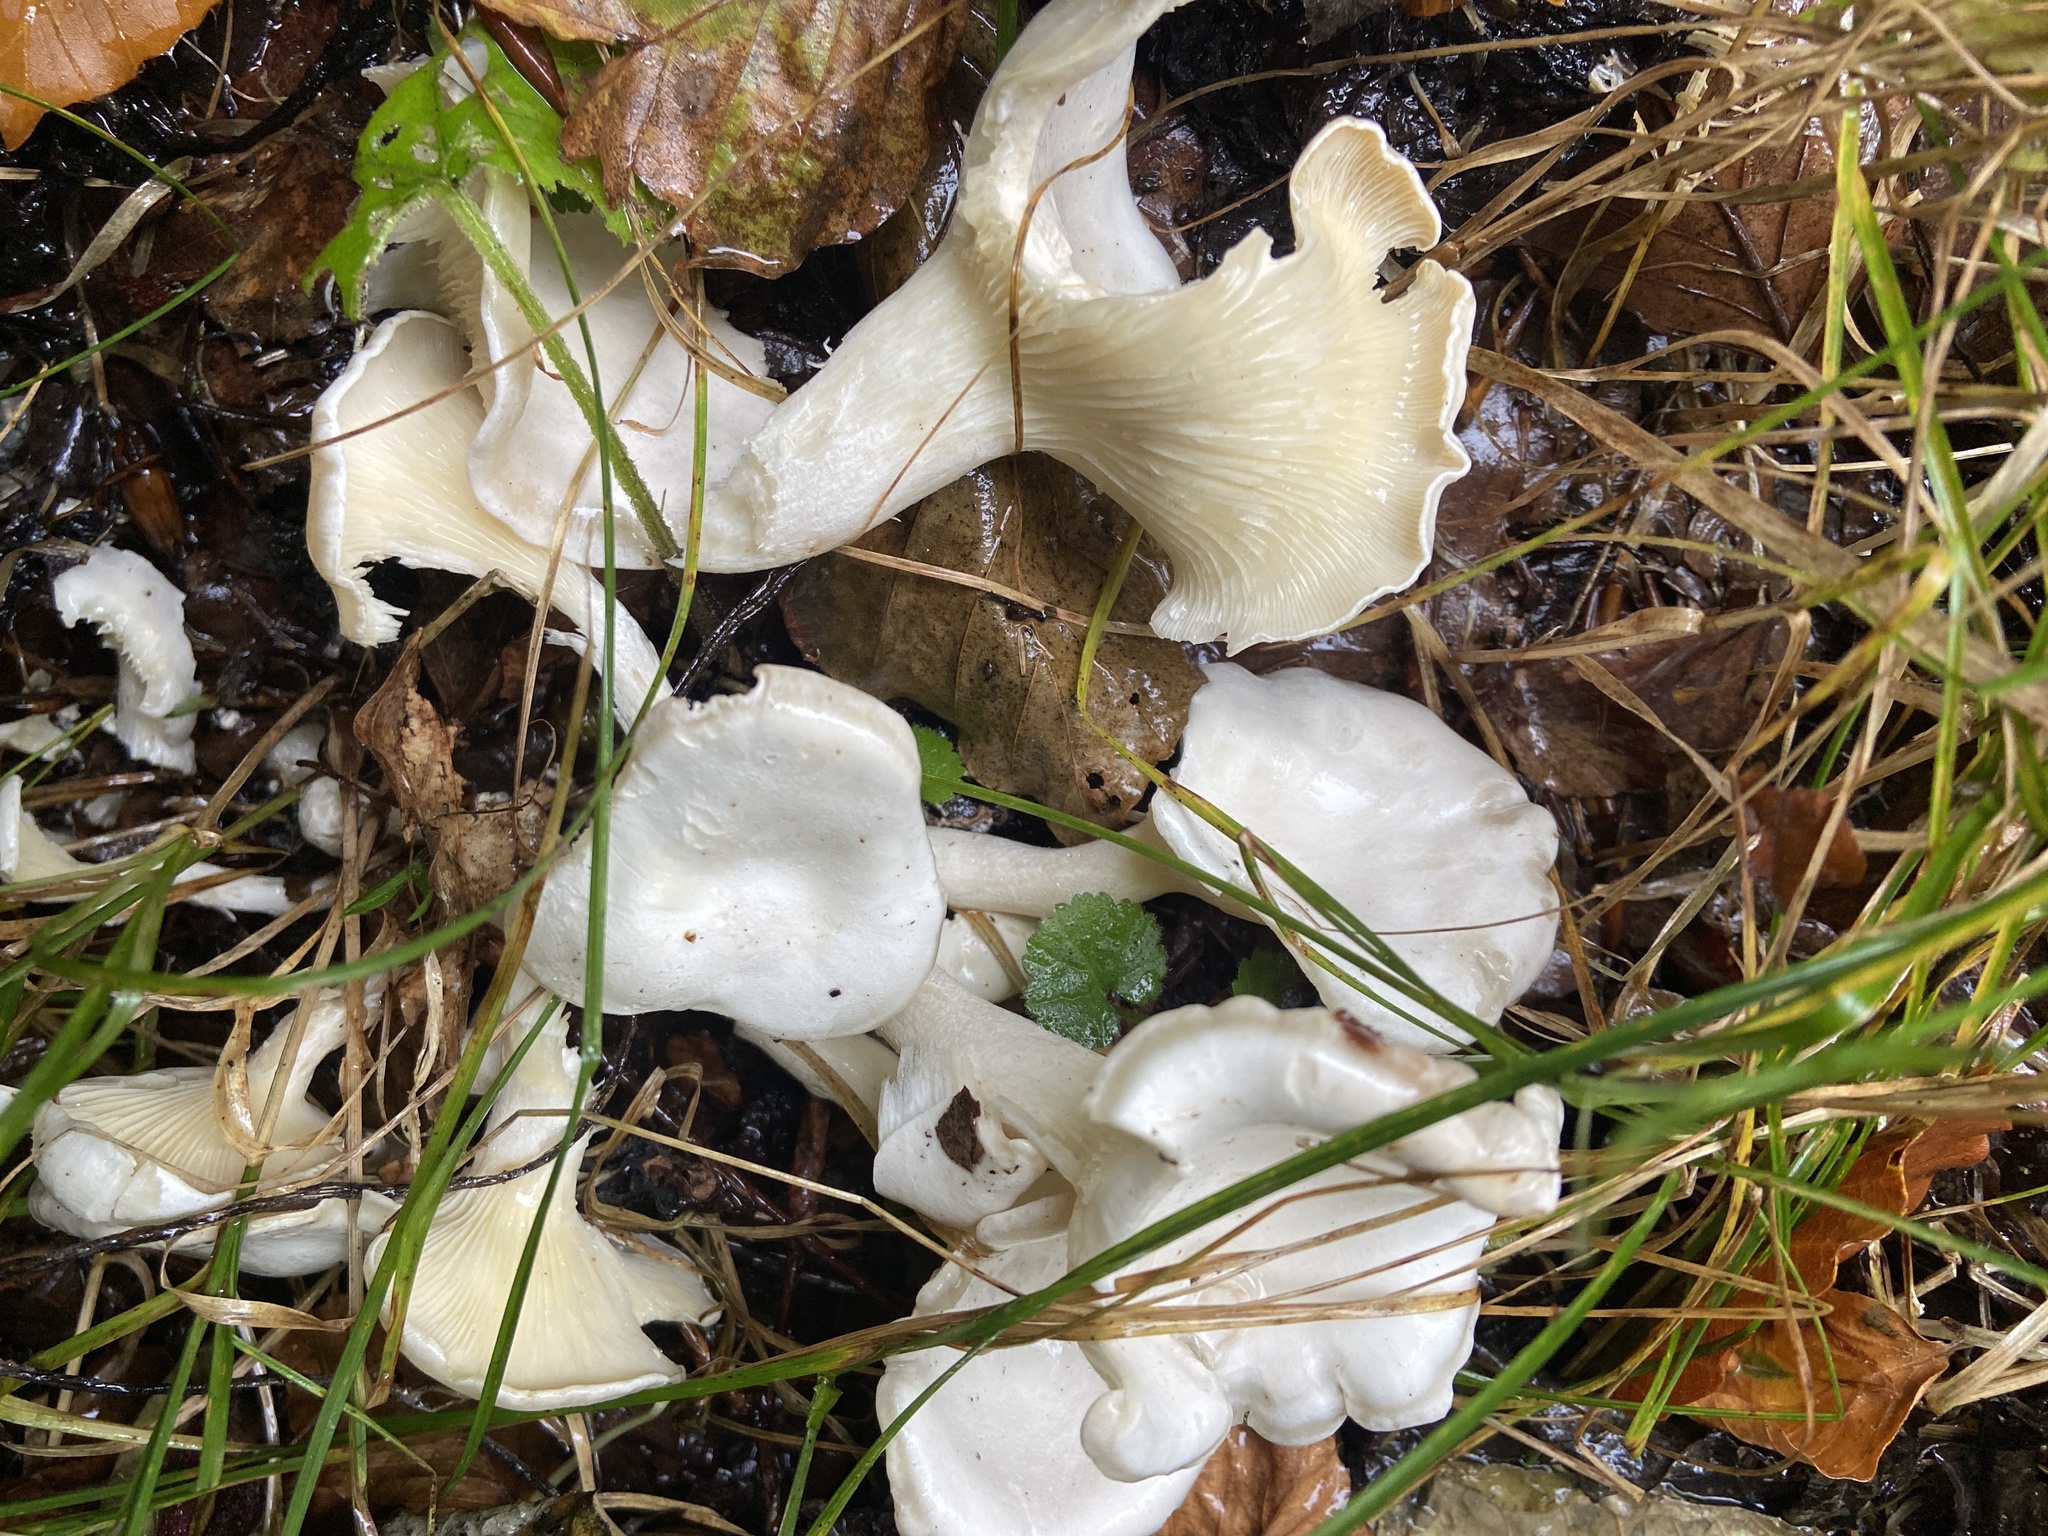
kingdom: Fungi
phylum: Basidiomycota
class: Agaricomycetes
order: Agaricales
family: Tricholomataceae
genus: Leucocybe
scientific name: Leucocybe connata
